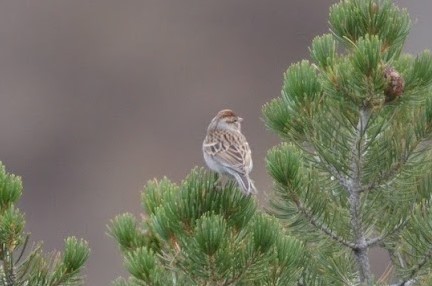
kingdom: Animalia
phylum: Chordata
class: Aves
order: Passeriformes
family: Passerellidae
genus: Spizella
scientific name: Spizella passerina
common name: Chipping sparrow
